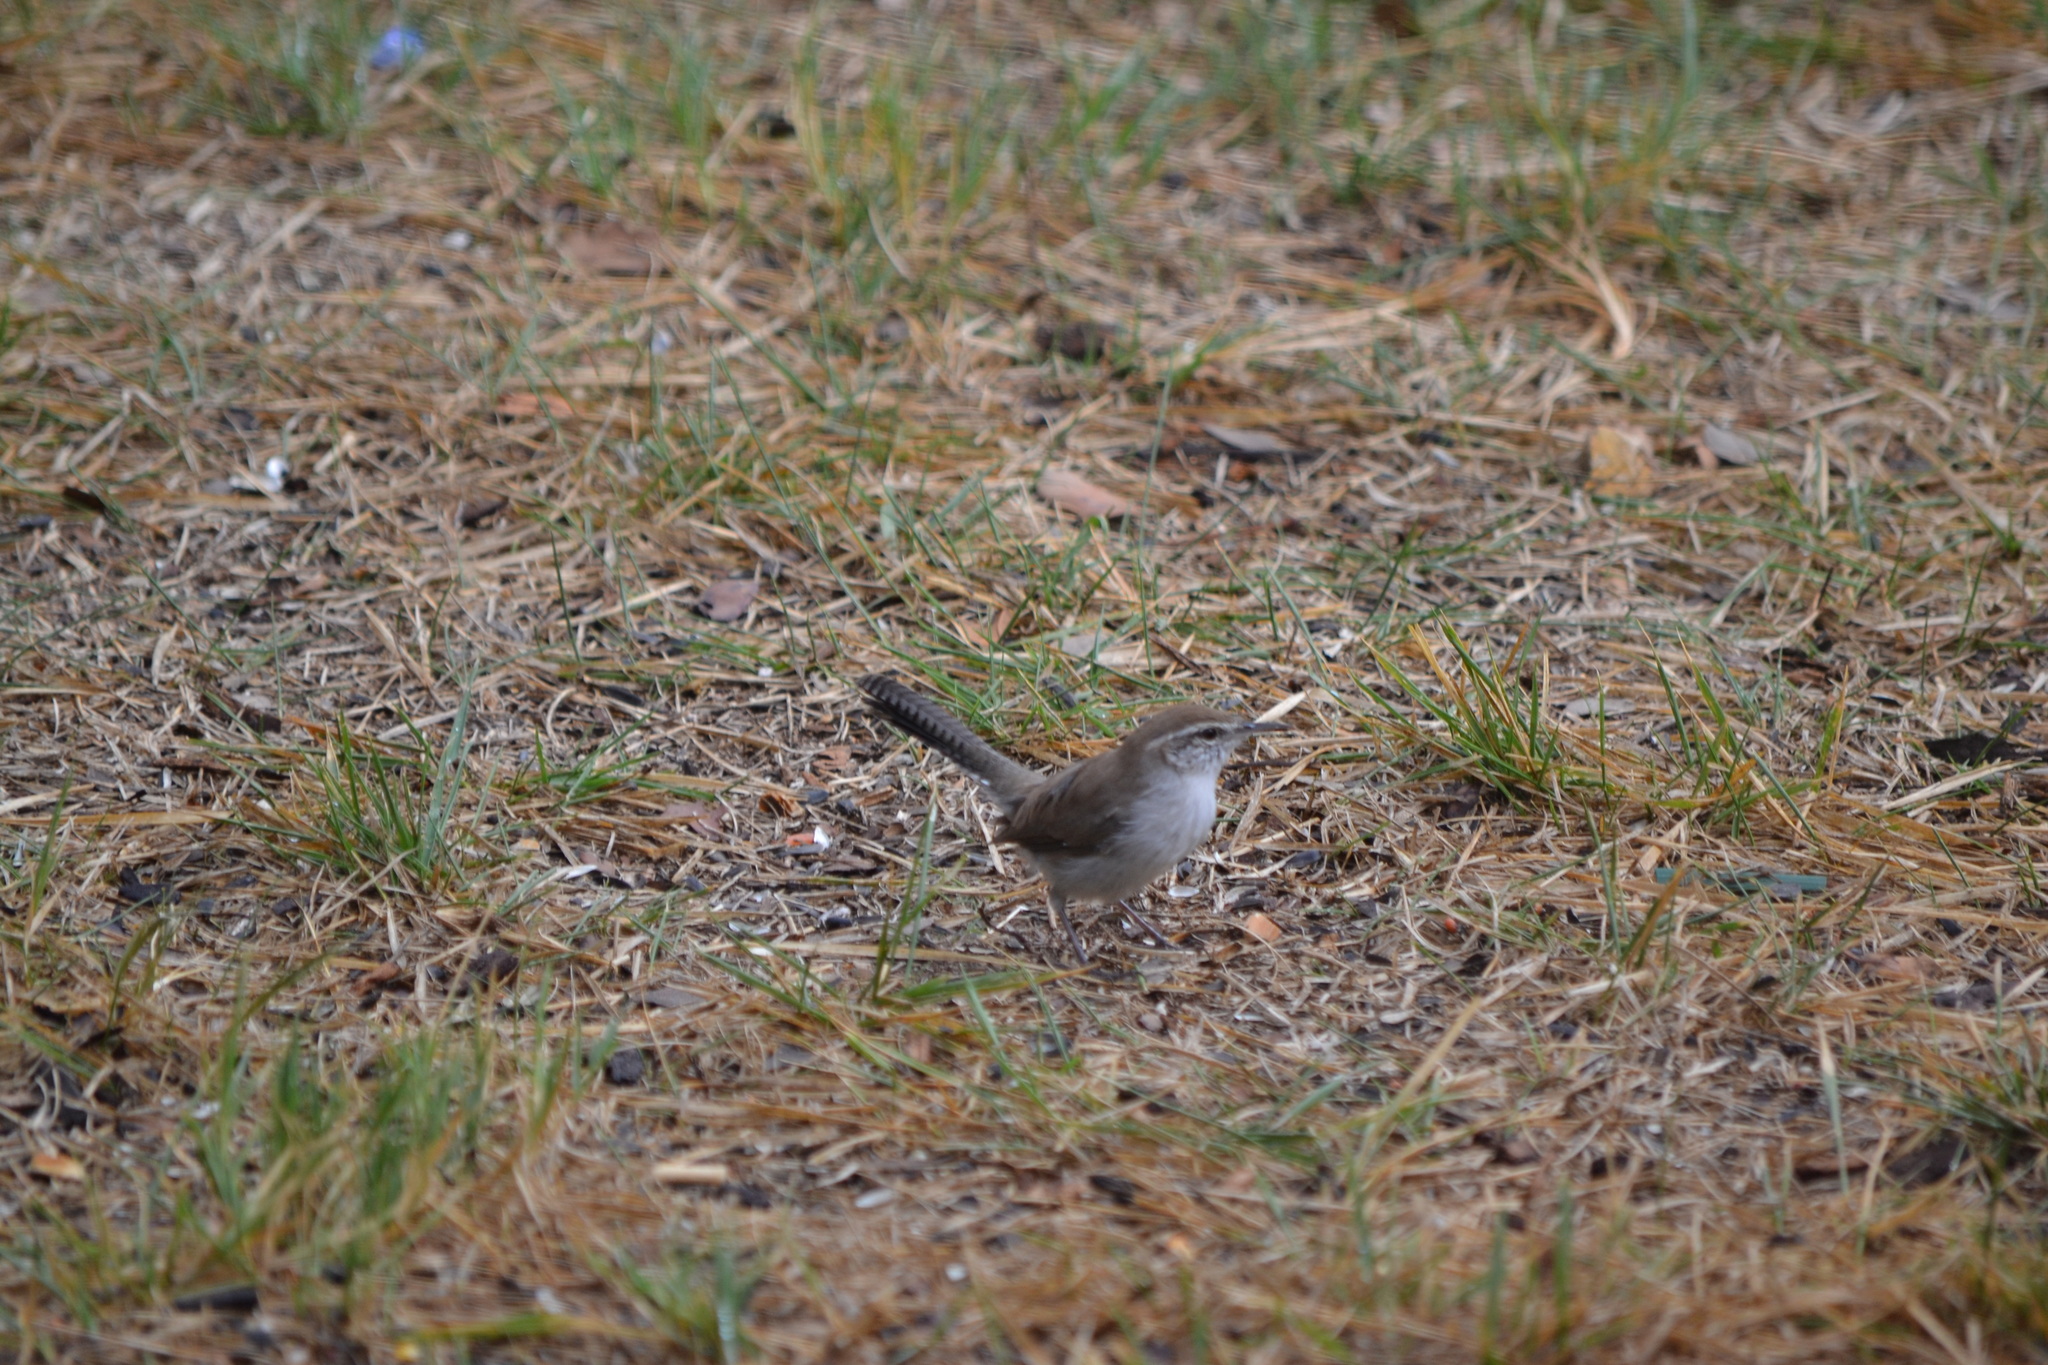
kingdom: Animalia
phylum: Chordata
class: Aves
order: Passeriformes
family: Troglodytidae
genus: Thryomanes
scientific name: Thryomanes bewickii
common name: Bewick's wren
